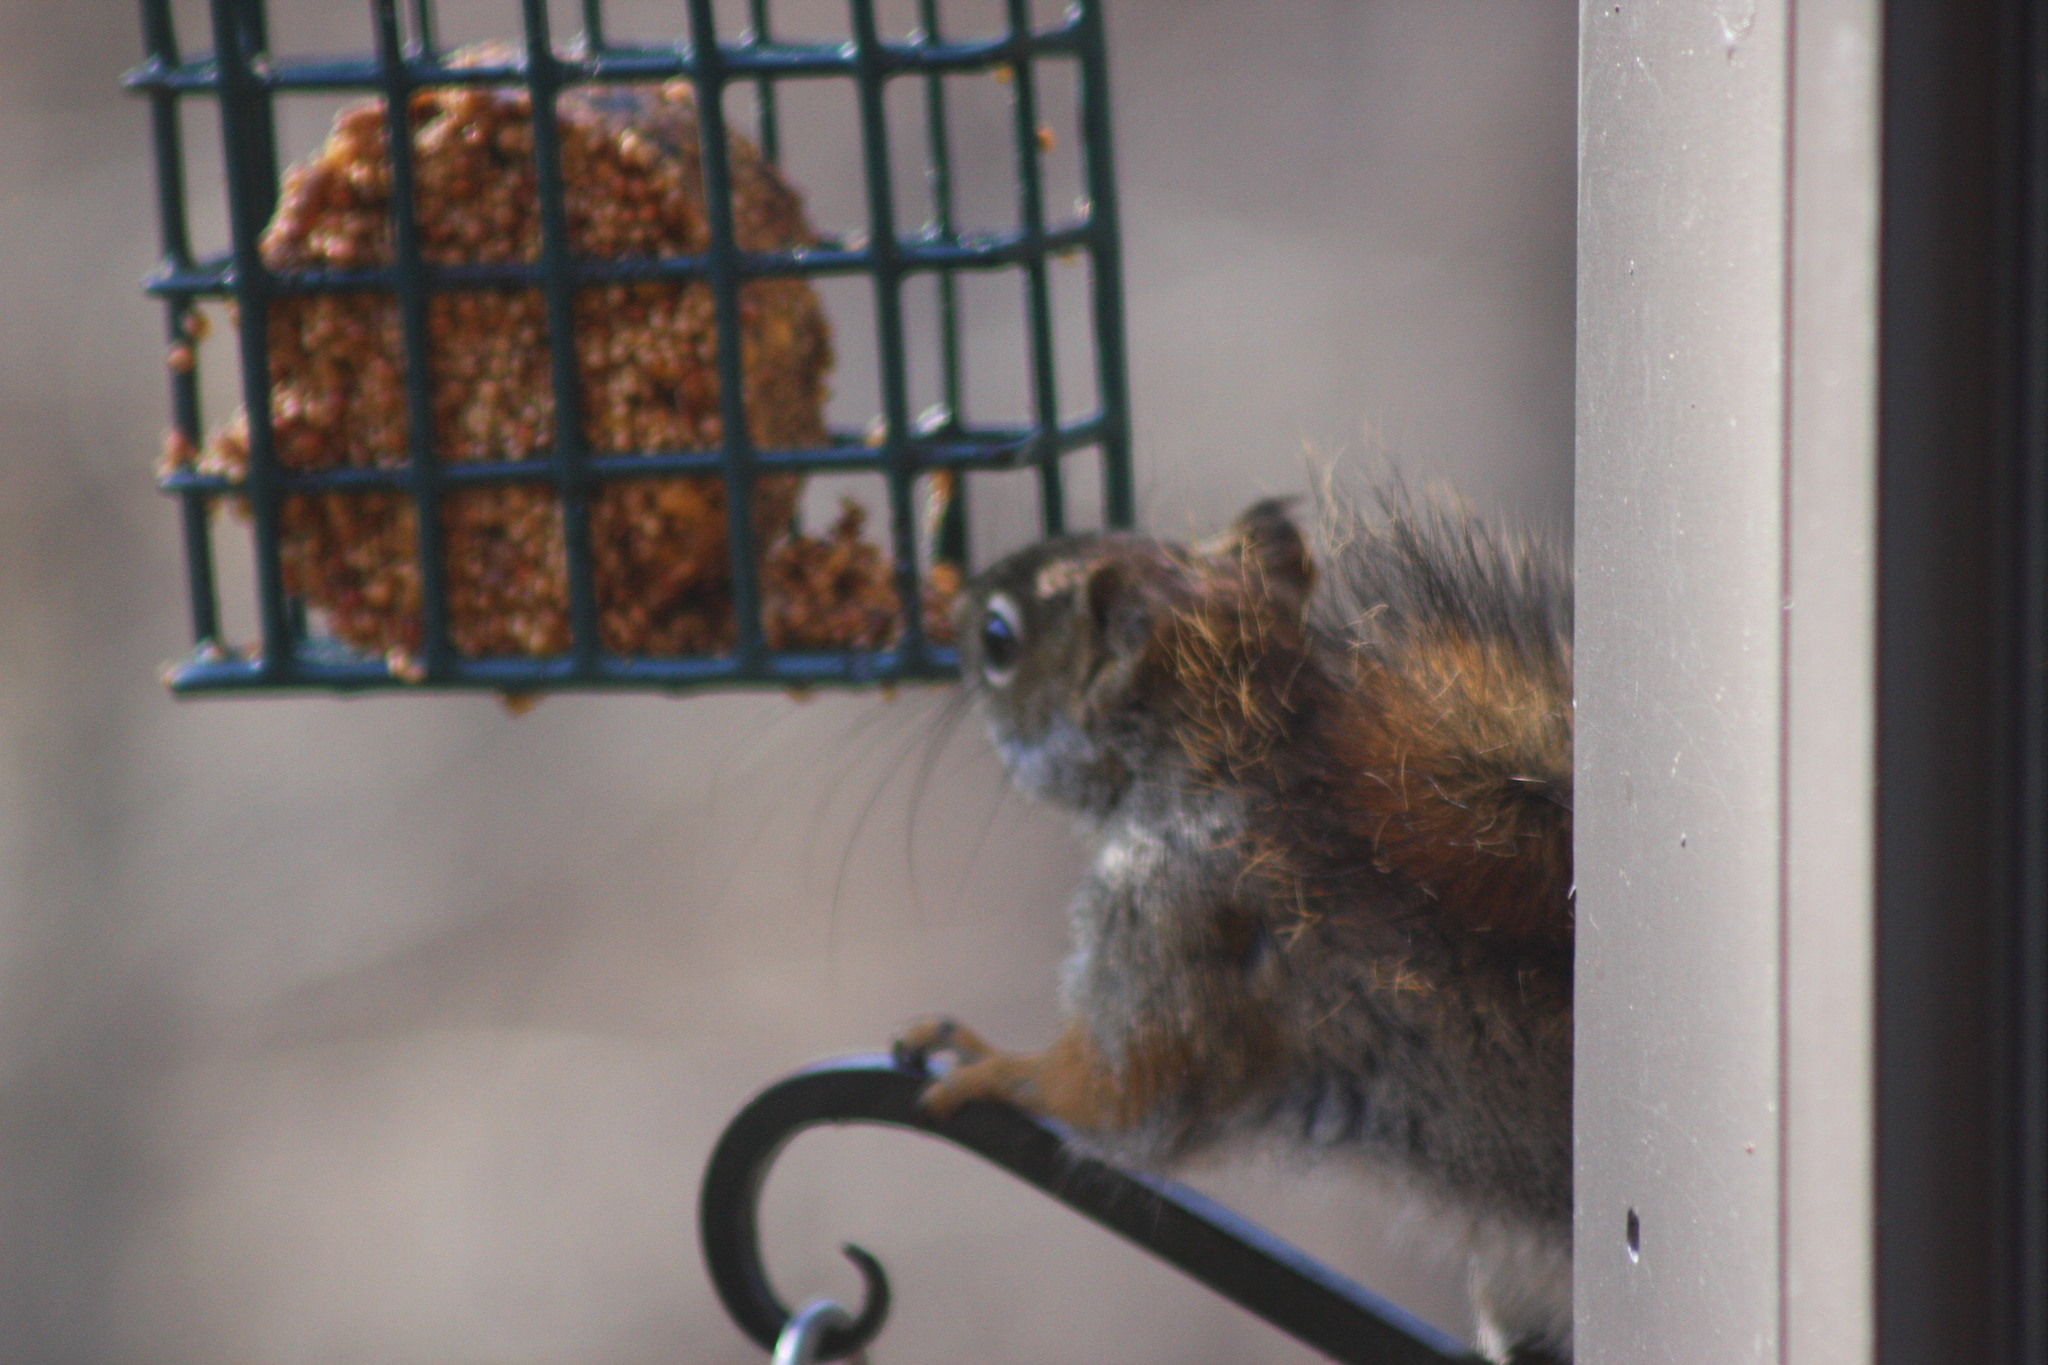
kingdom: Animalia
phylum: Chordata
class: Mammalia
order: Rodentia
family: Sciuridae
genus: Tamiasciurus
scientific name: Tamiasciurus hudsonicus
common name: Red squirrel
